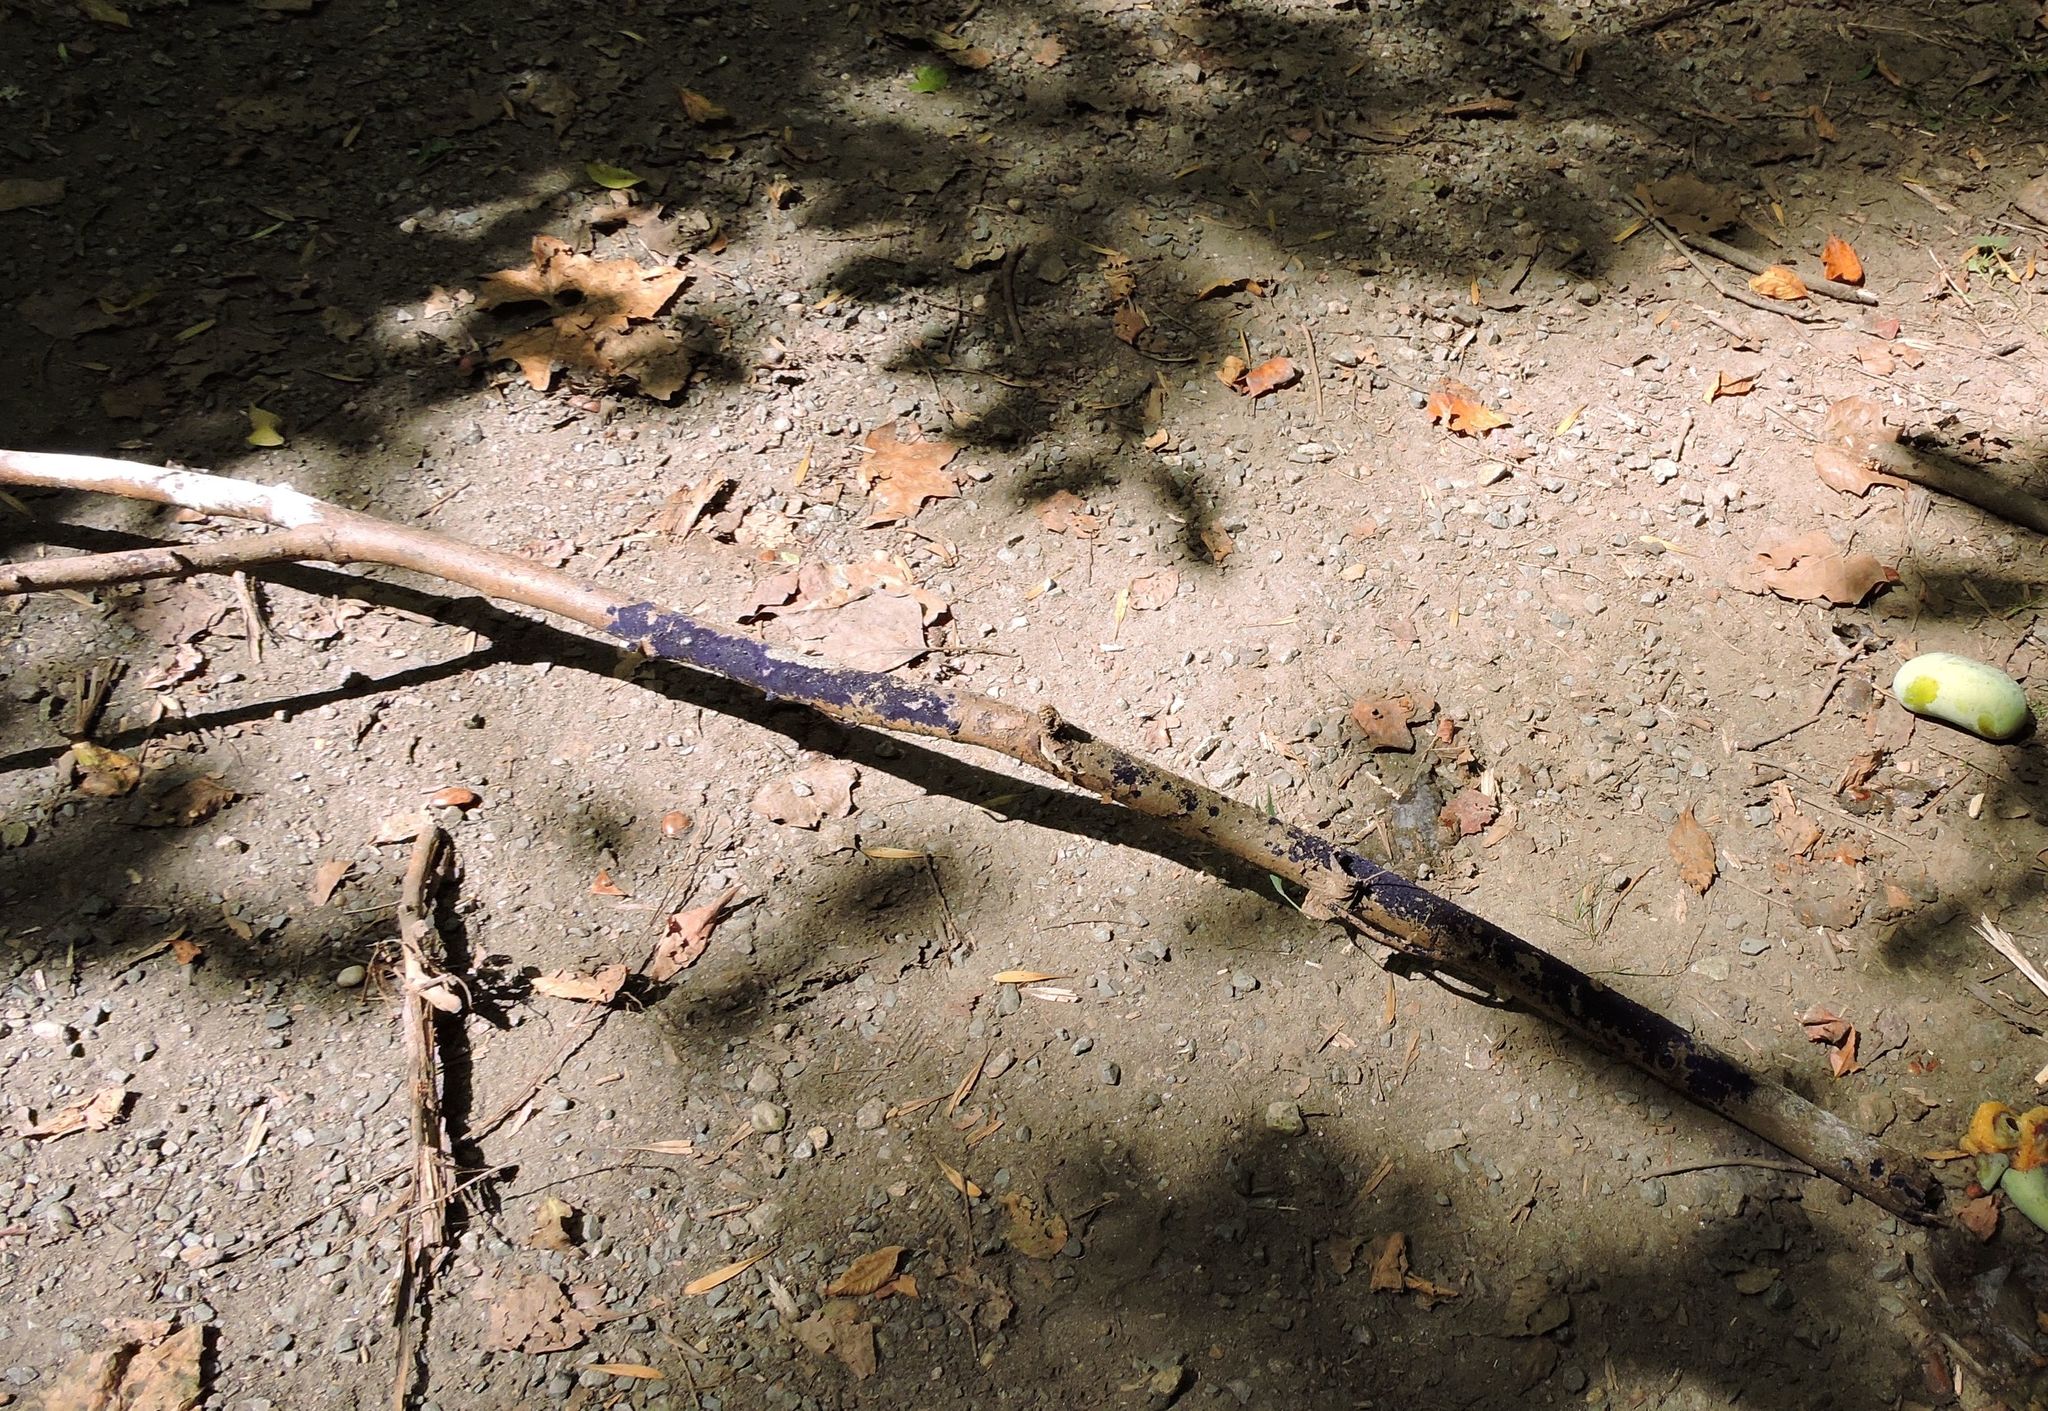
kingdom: Fungi
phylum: Basidiomycota
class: Agaricomycetes
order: Polyporales
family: Phanerochaetaceae
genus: Terana
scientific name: Terana coerulea
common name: Cobalt crust
